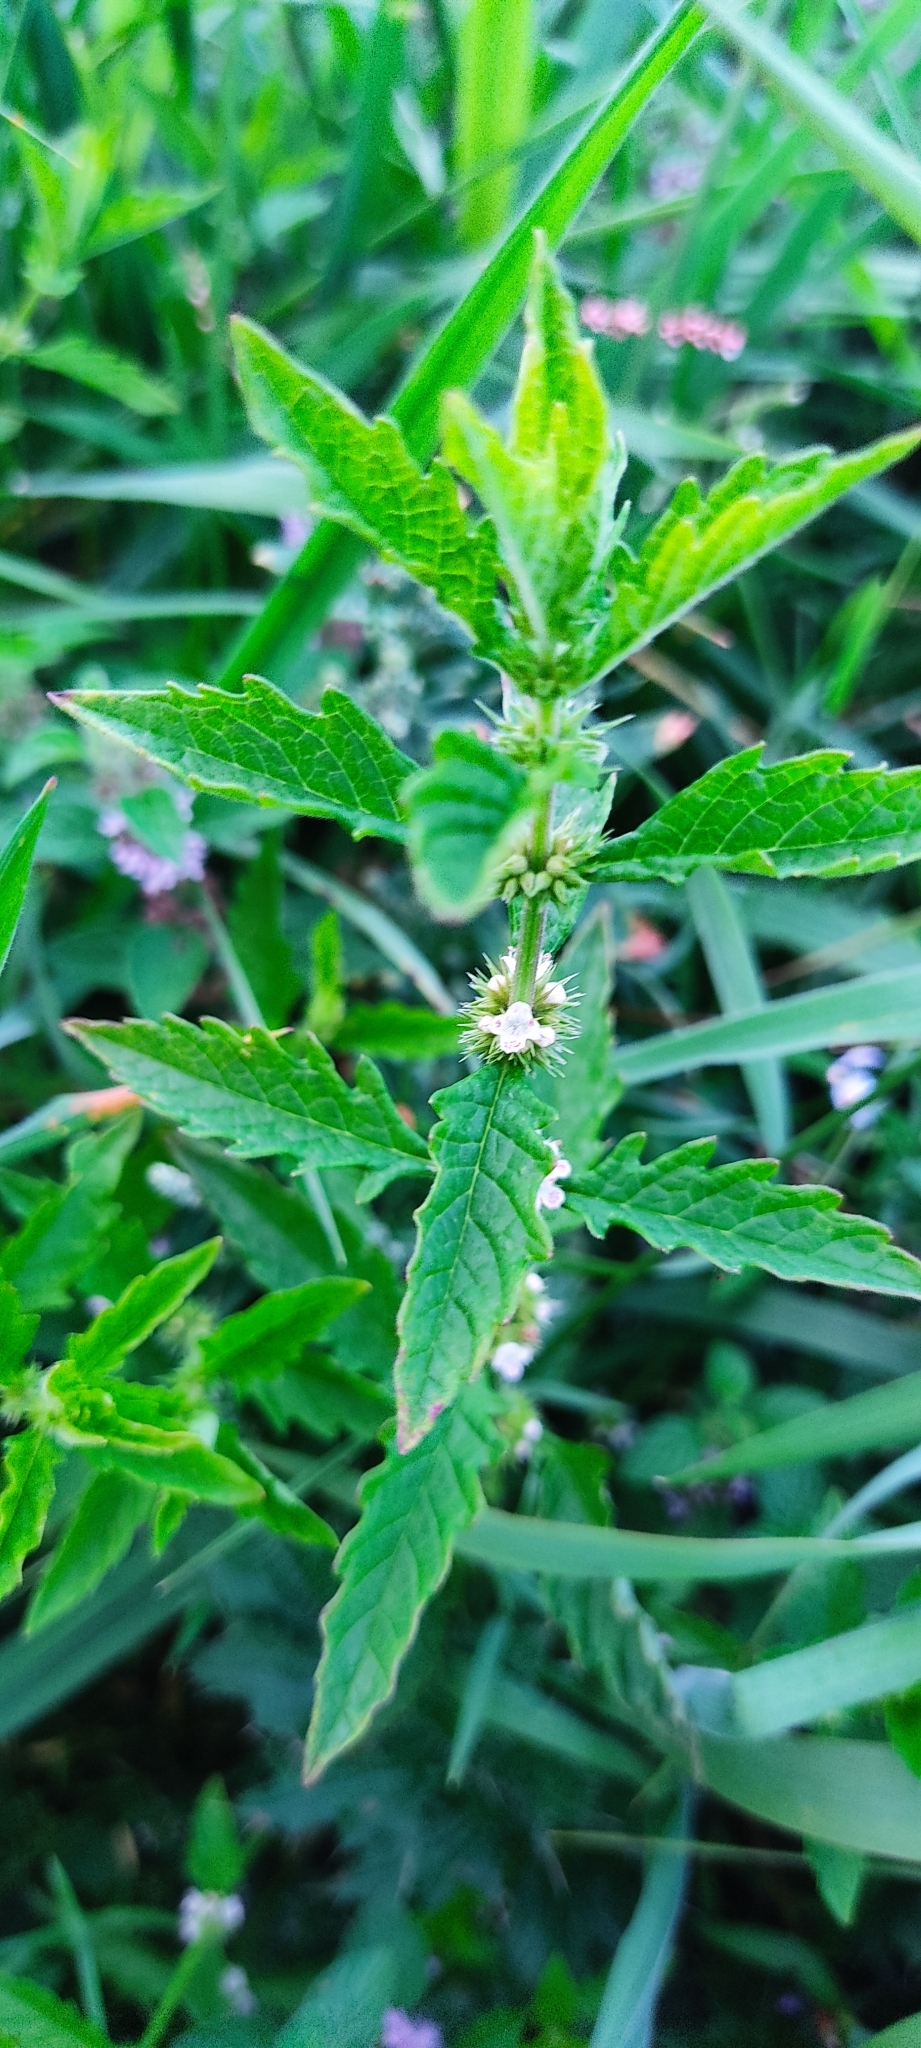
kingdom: Plantae
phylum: Tracheophyta
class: Magnoliopsida
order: Lamiales
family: Lamiaceae
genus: Lycopus
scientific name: Lycopus europaeus
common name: European bugleweed
